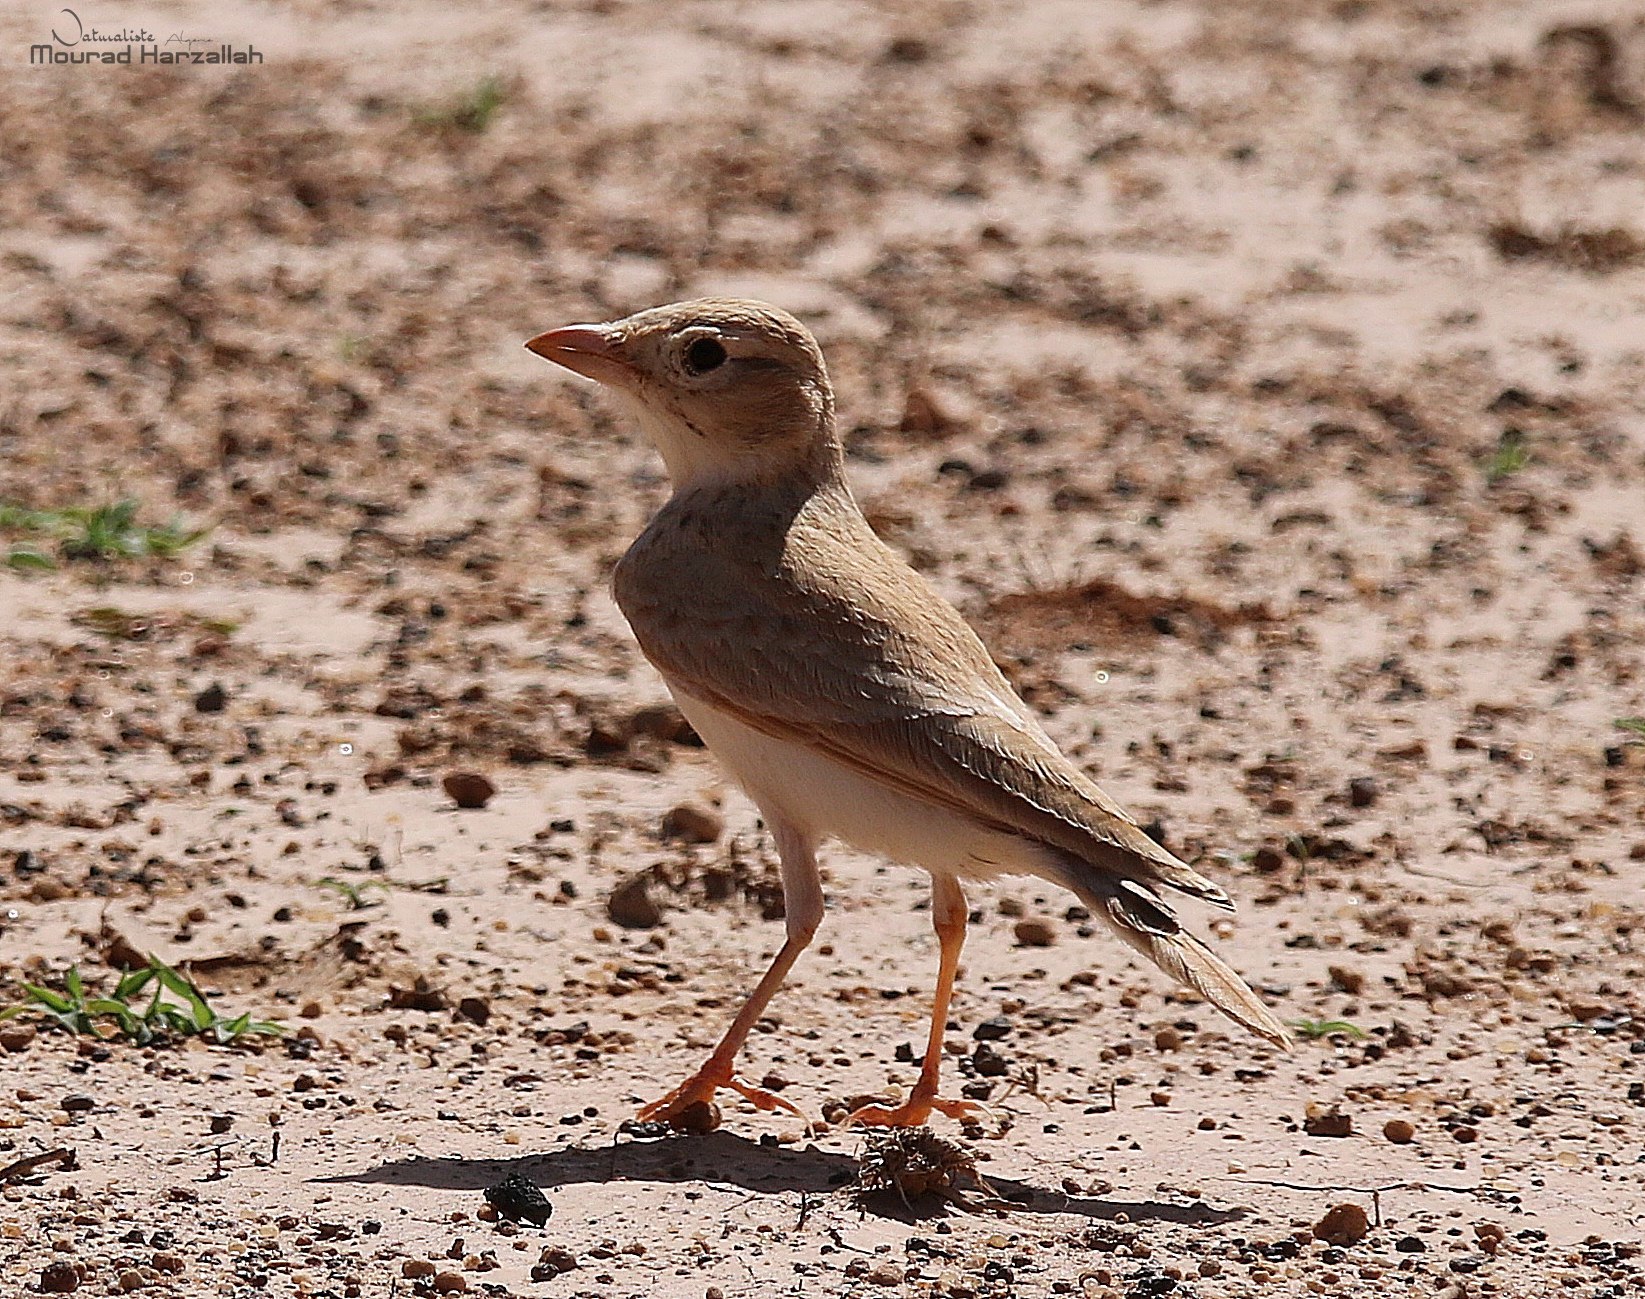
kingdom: Animalia
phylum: Chordata
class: Aves
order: Passeriformes
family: Alaudidae
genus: Eremalauda
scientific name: Eremalauda dunni
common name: Dunn's lark
